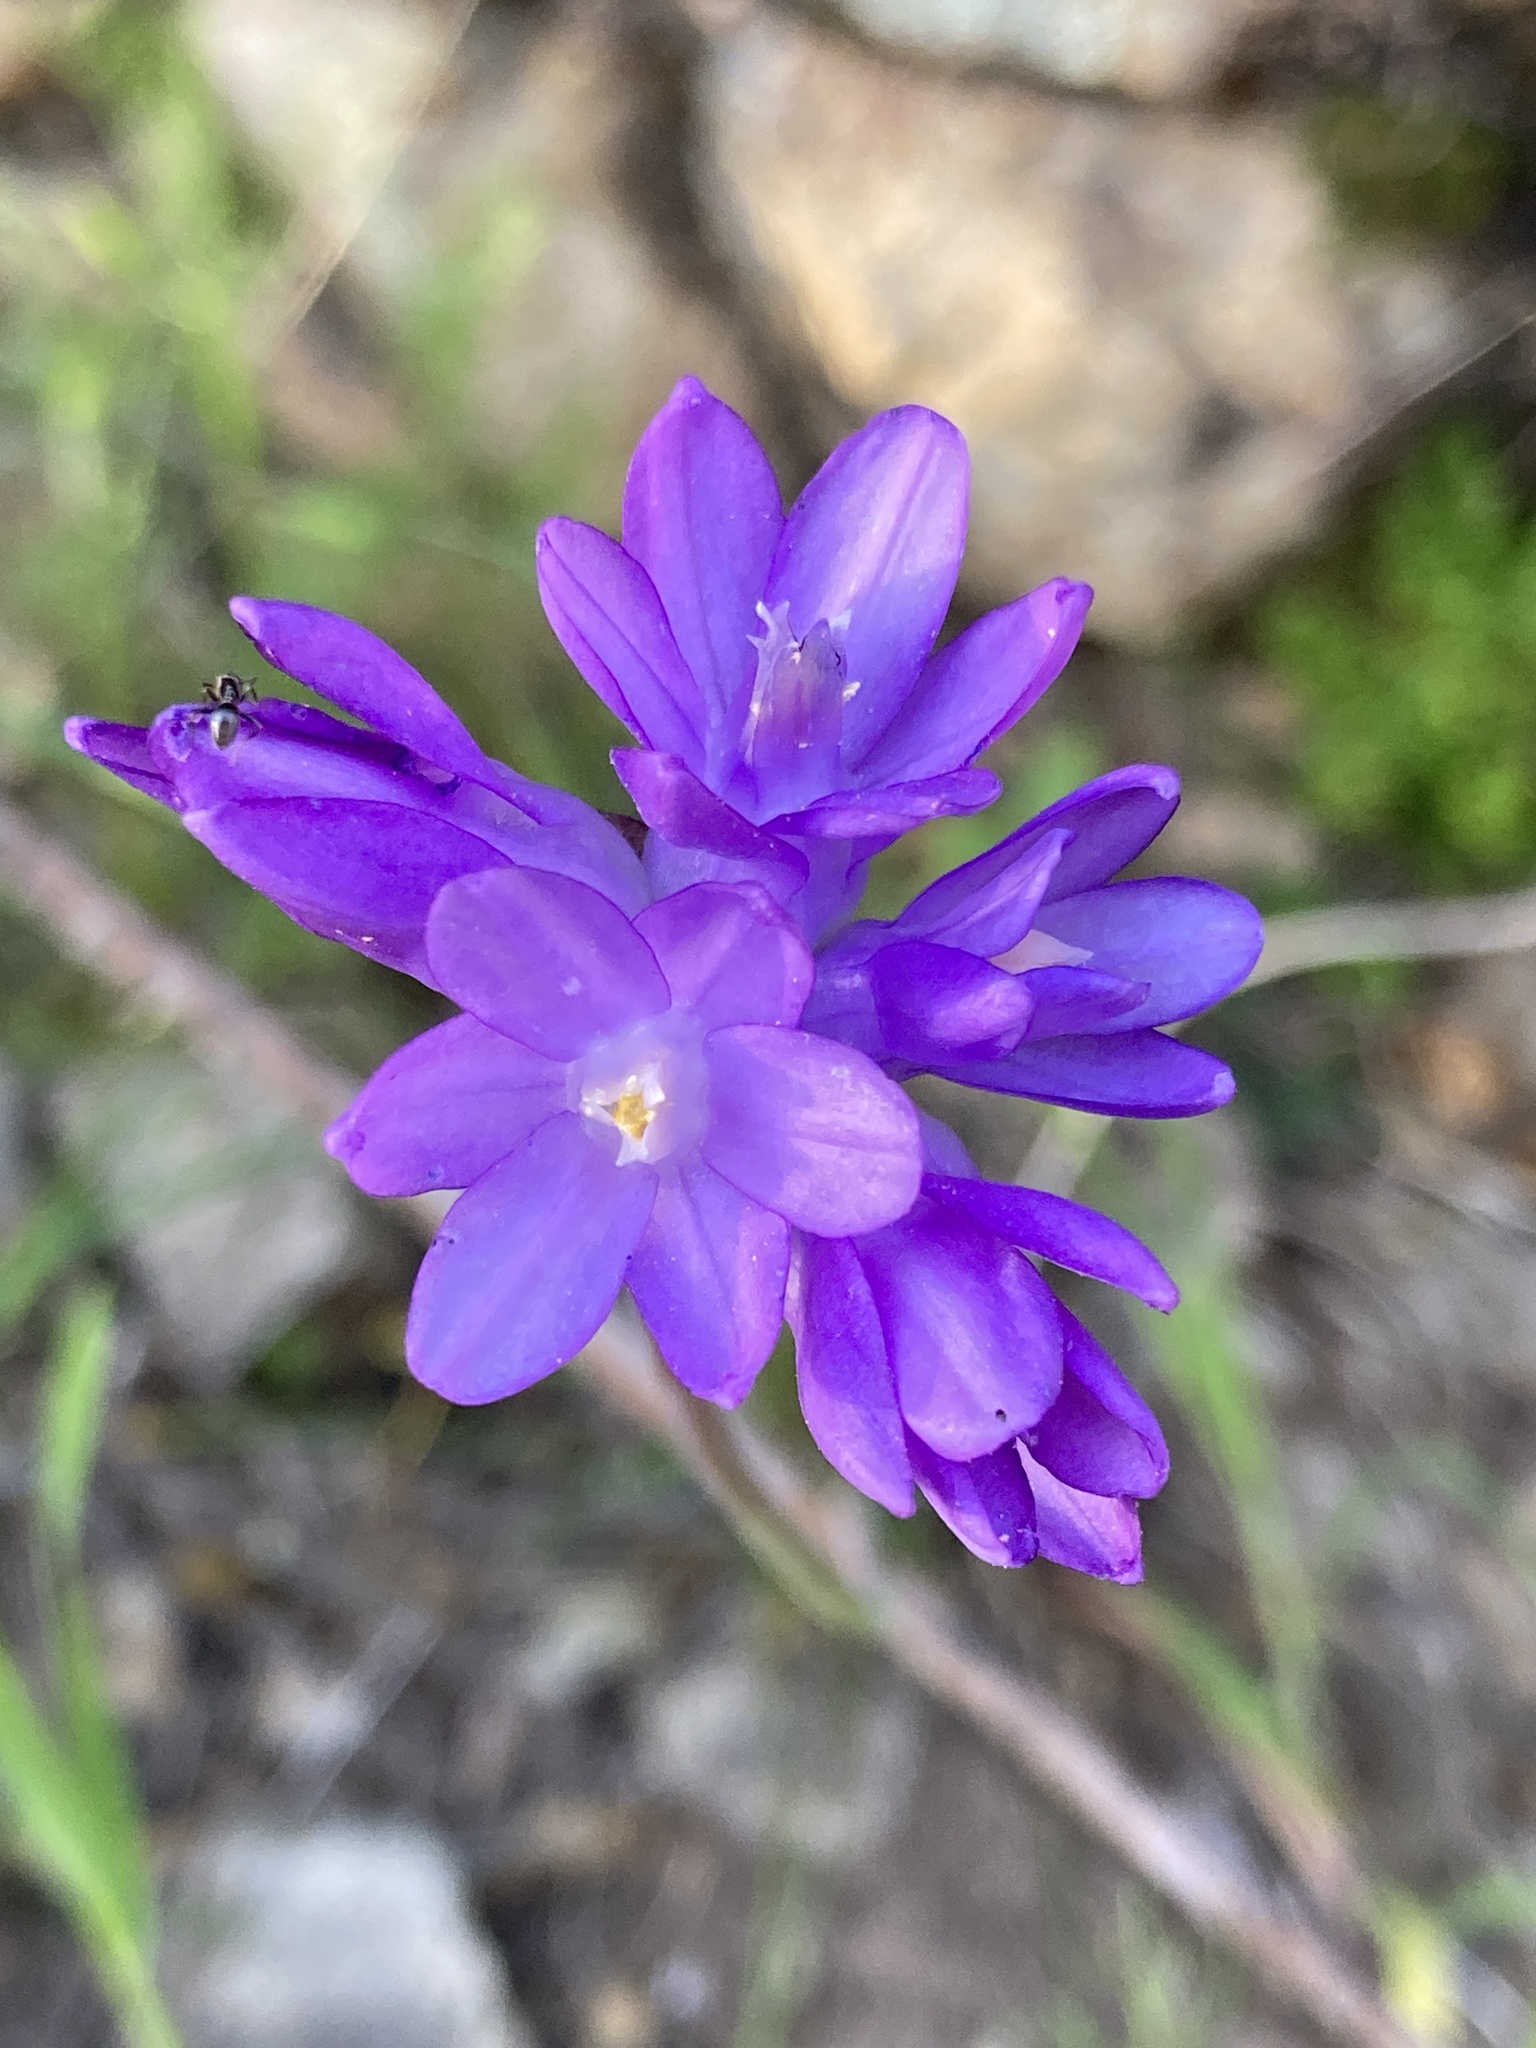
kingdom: Plantae
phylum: Tracheophyta
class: Liliopsida
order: Asparagales
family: Asparagaceae
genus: Dipterostemon
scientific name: Dipterostemon capitatus
